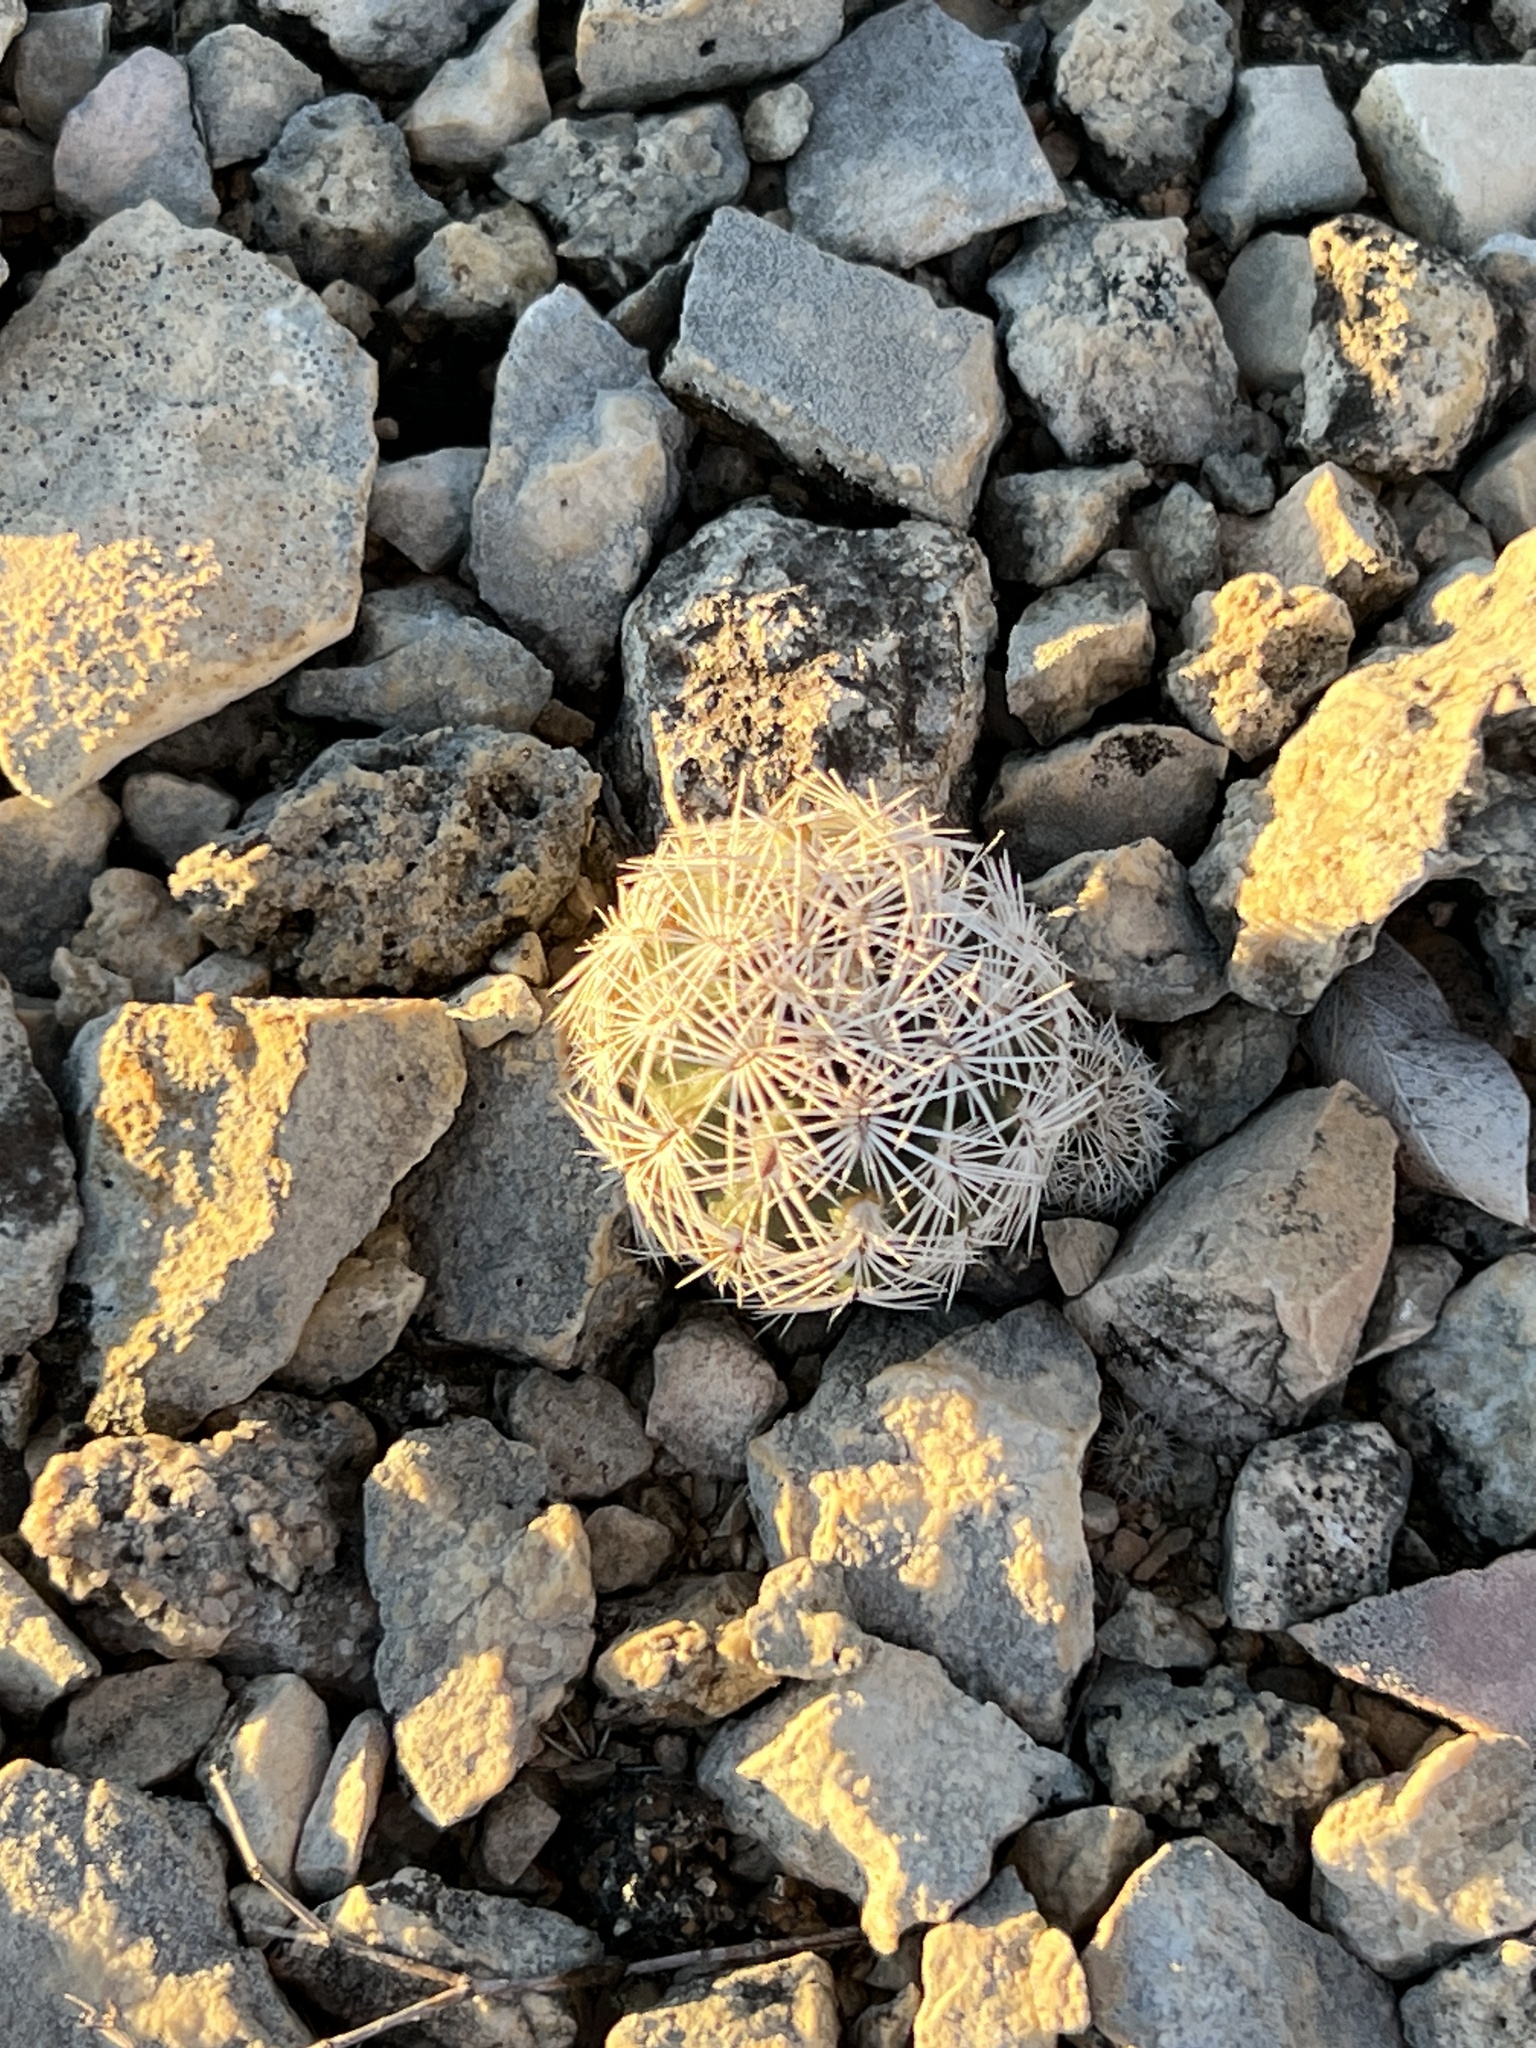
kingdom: Plantae
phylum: Tracheophyta
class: Magnoliopsida
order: Caryophyllales
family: Cactaceae
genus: Echinocereus
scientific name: Echinocereus reichenbachii
